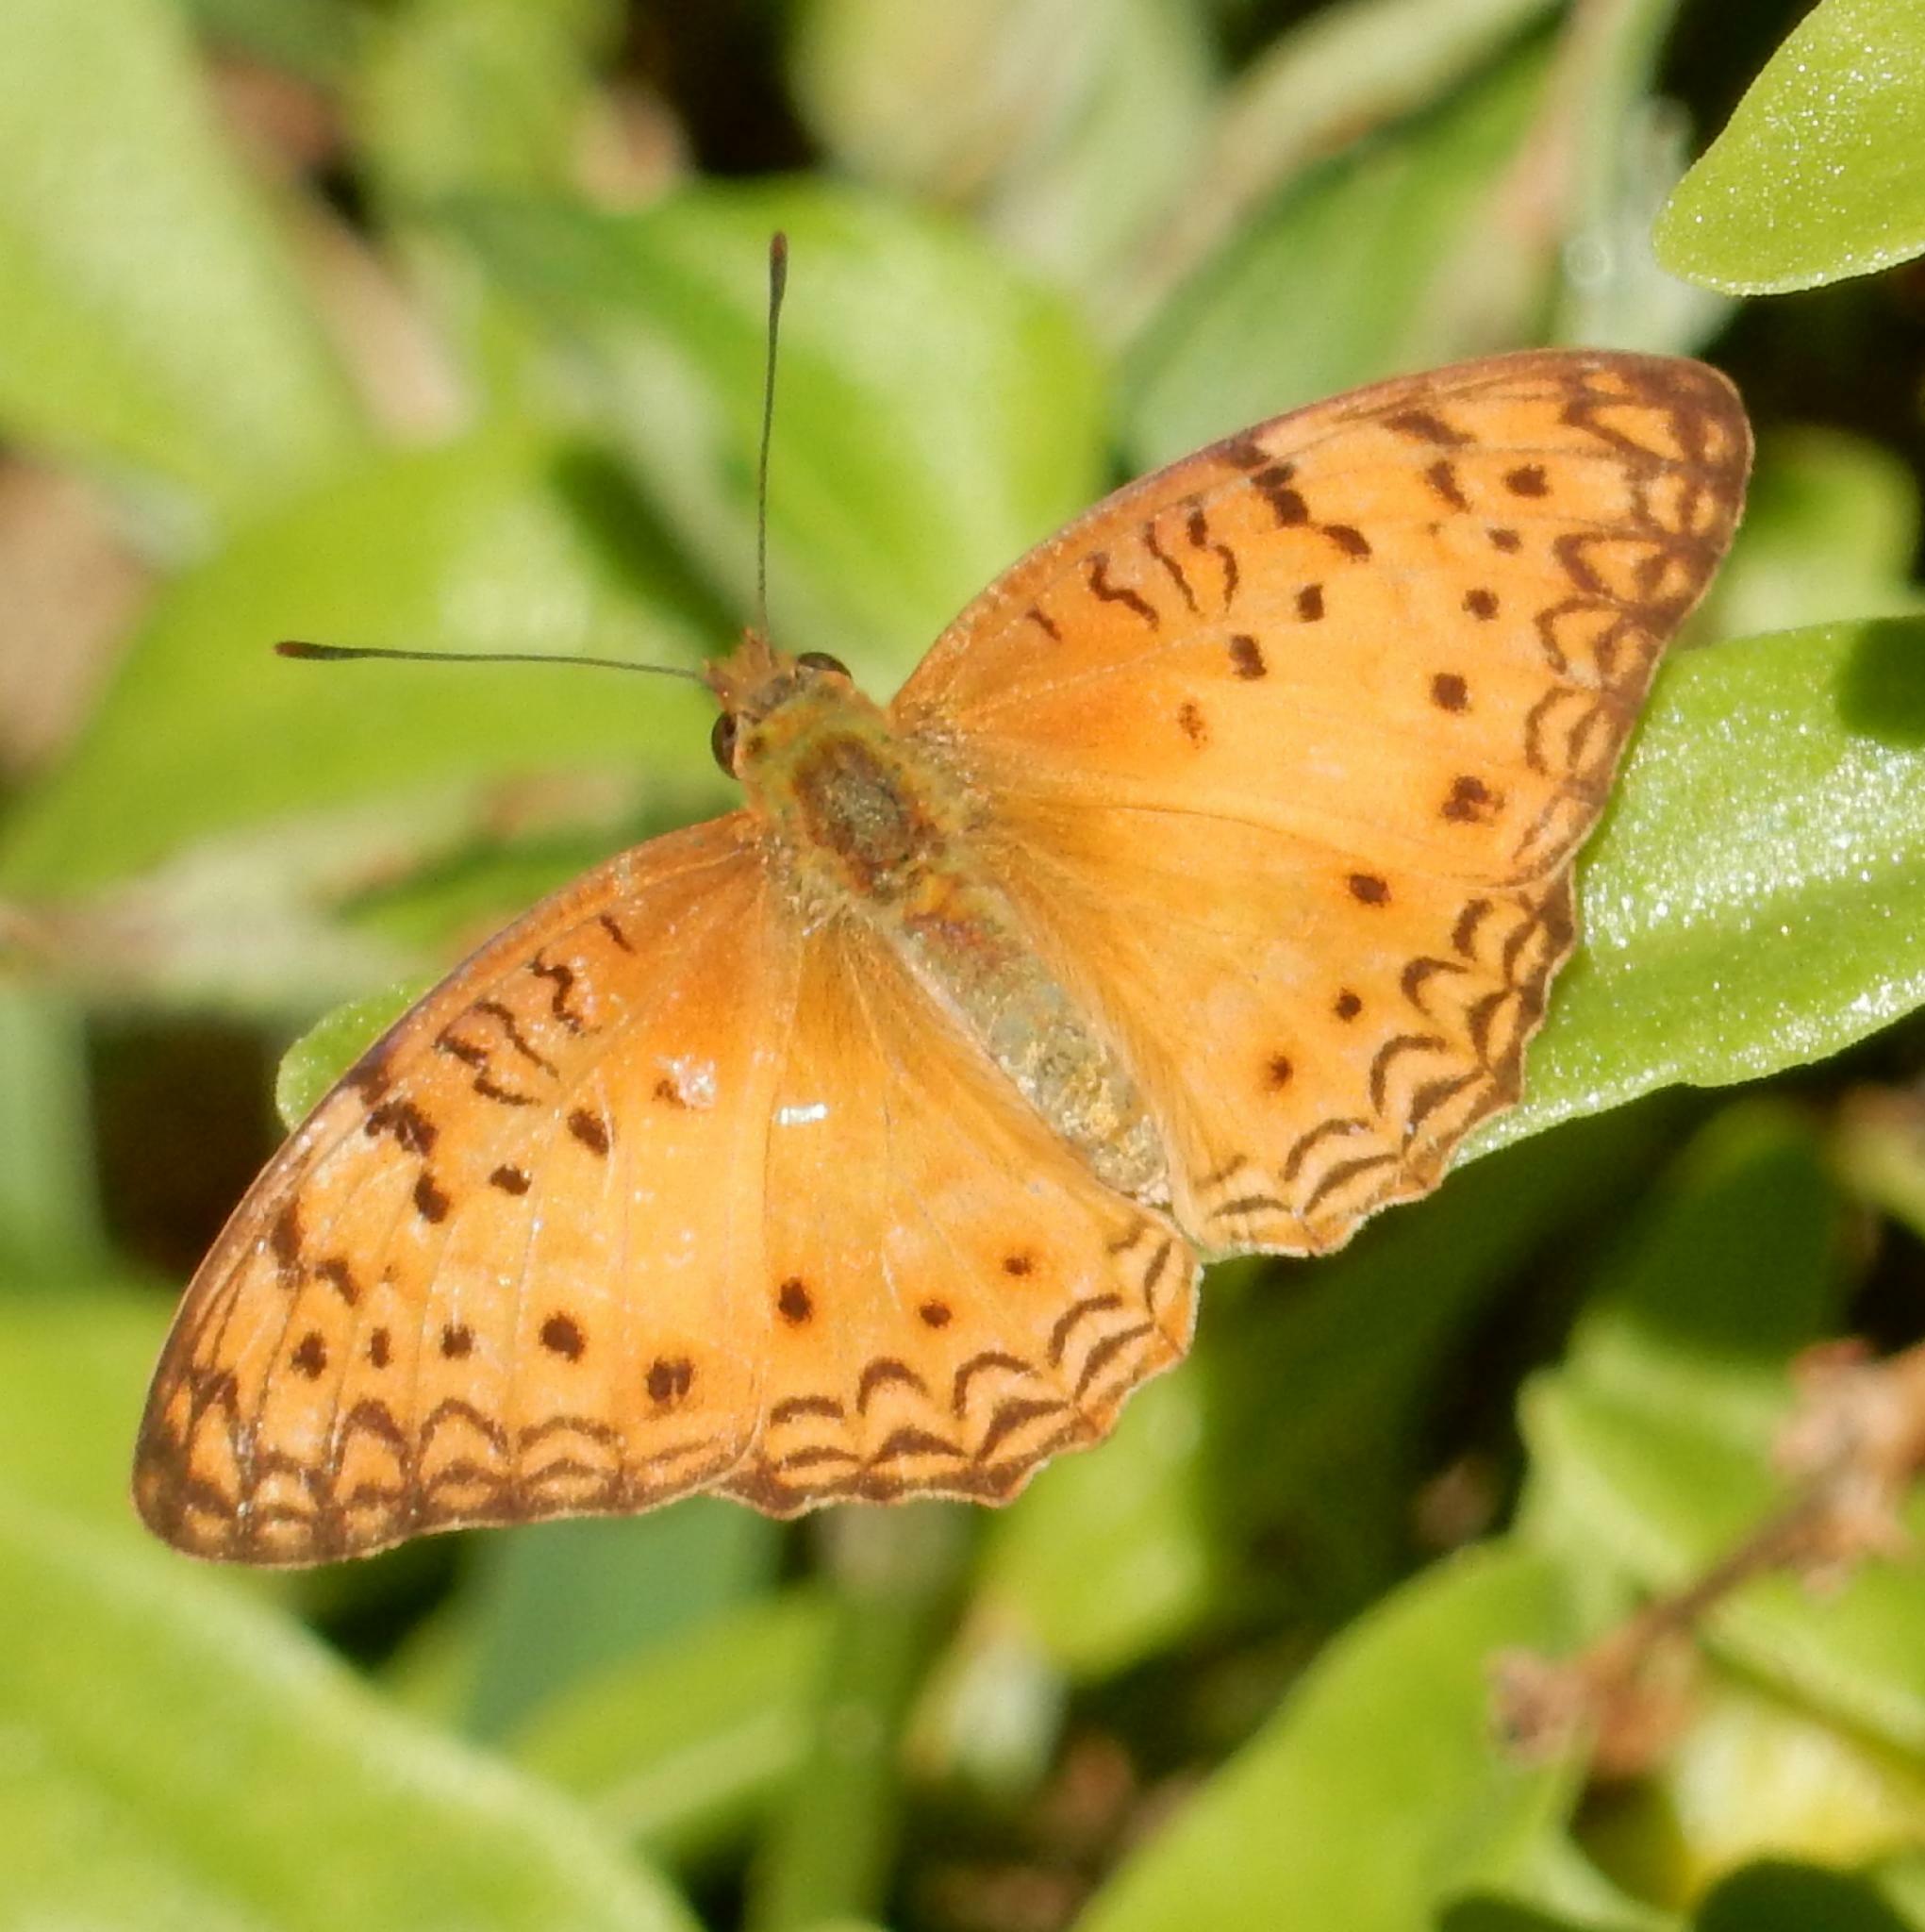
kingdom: Animalia
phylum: Arthropoda
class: Insecta
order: Lepidoptera
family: Nymphalidae
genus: Phalanta
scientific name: Phalanta columbina
